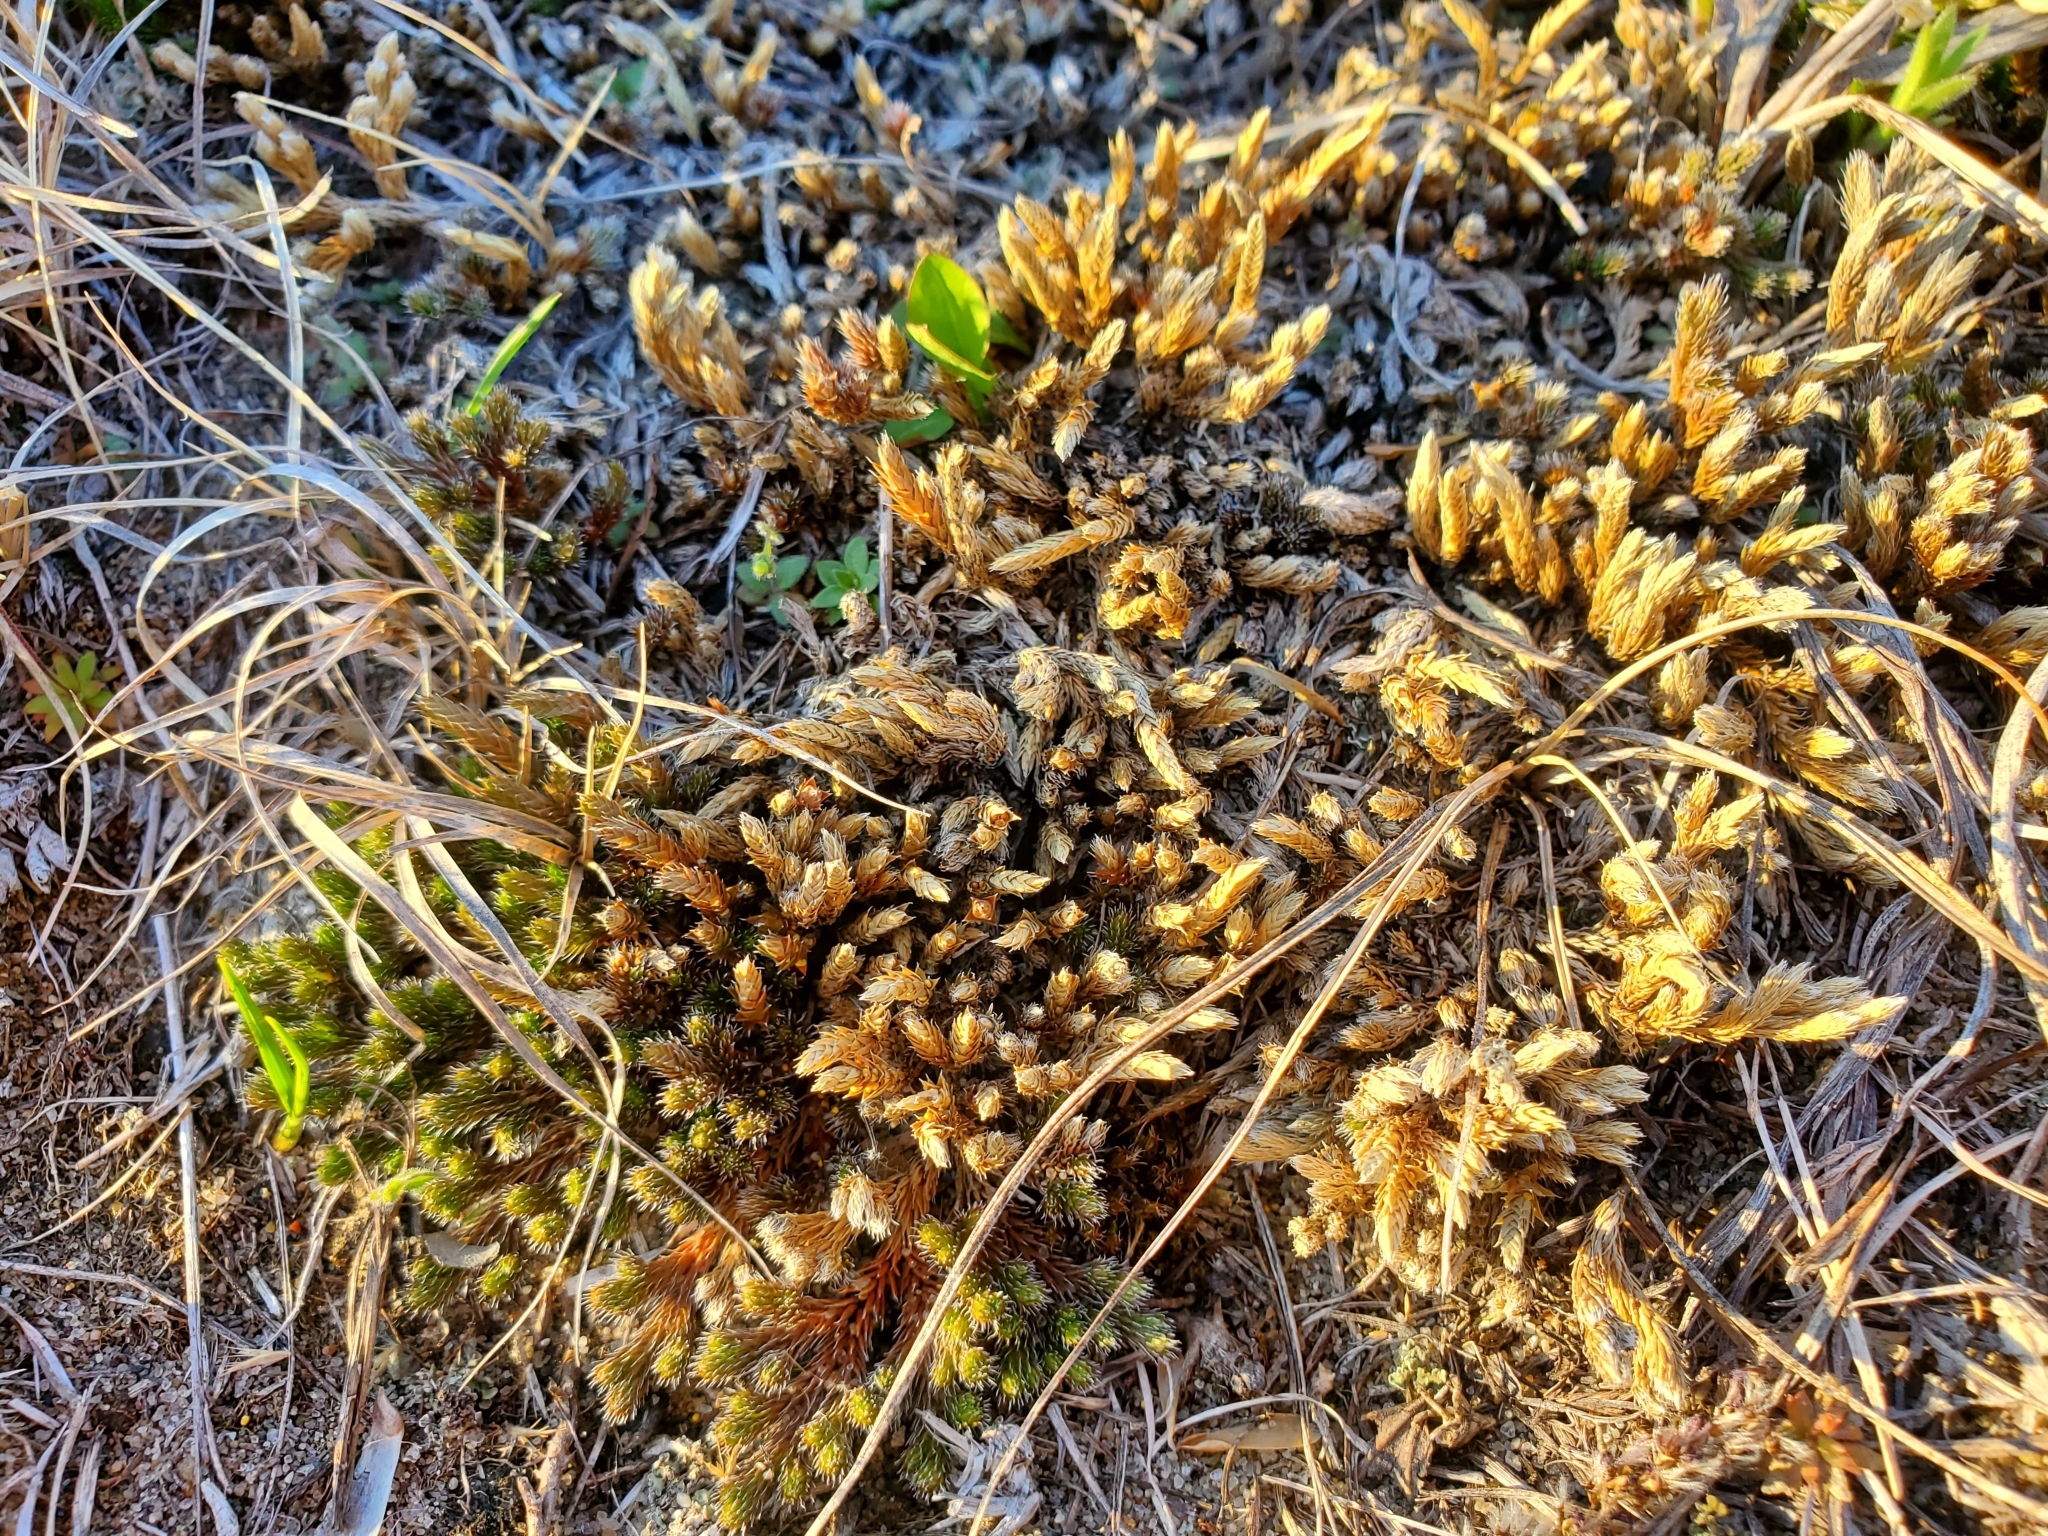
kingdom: Plantae
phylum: Tracheophyta
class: Lycopodiopsida
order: Selaginellales
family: Selaginellaceae
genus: Selaginella
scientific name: Selaginella densa
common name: Mountain spike-moss
